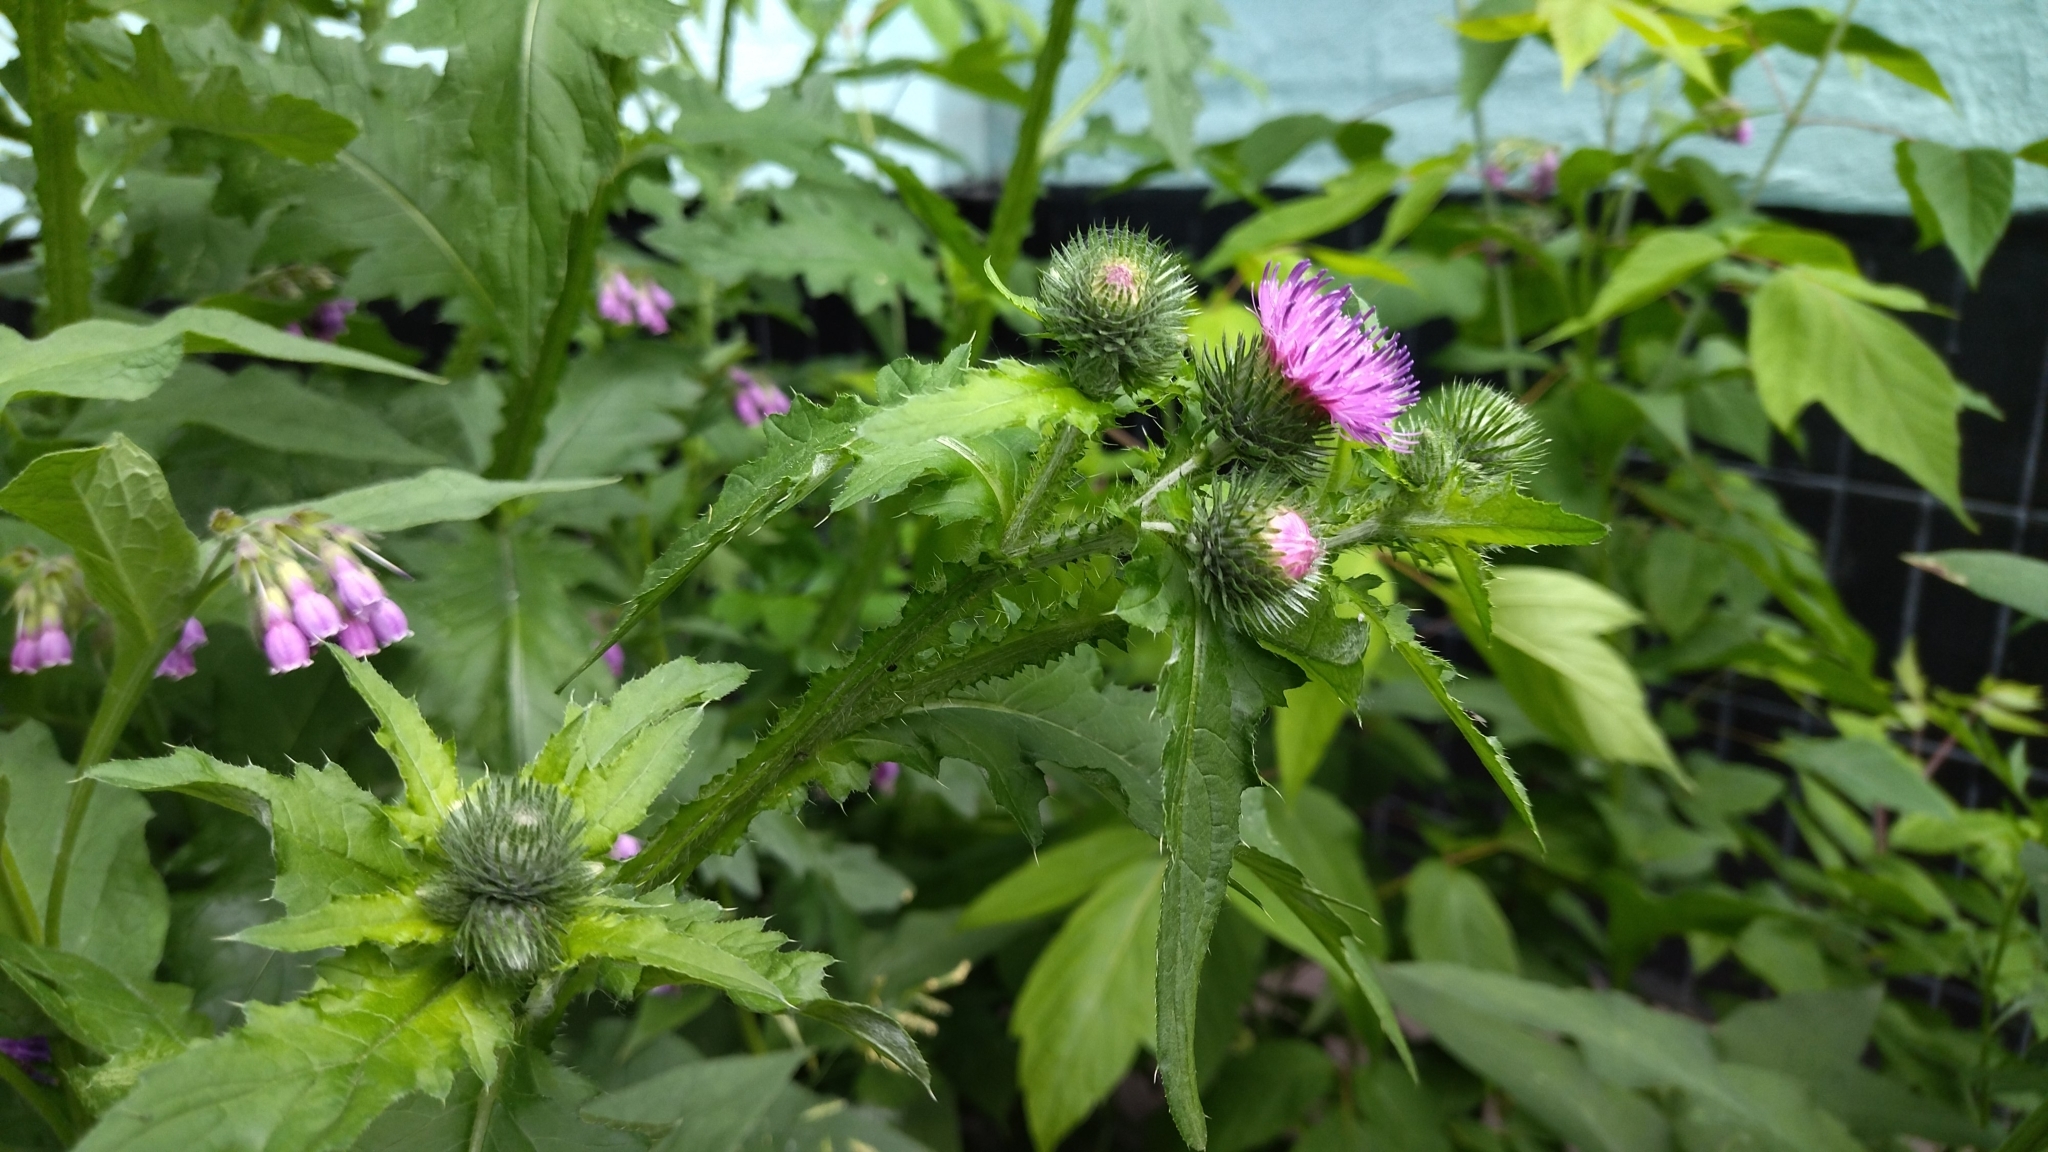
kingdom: Plantae
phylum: Tracheophyta
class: Magnoliopsida
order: Asterales
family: Asteraceae
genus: Carduus
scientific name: Carduus crispus
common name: Welted thistle
